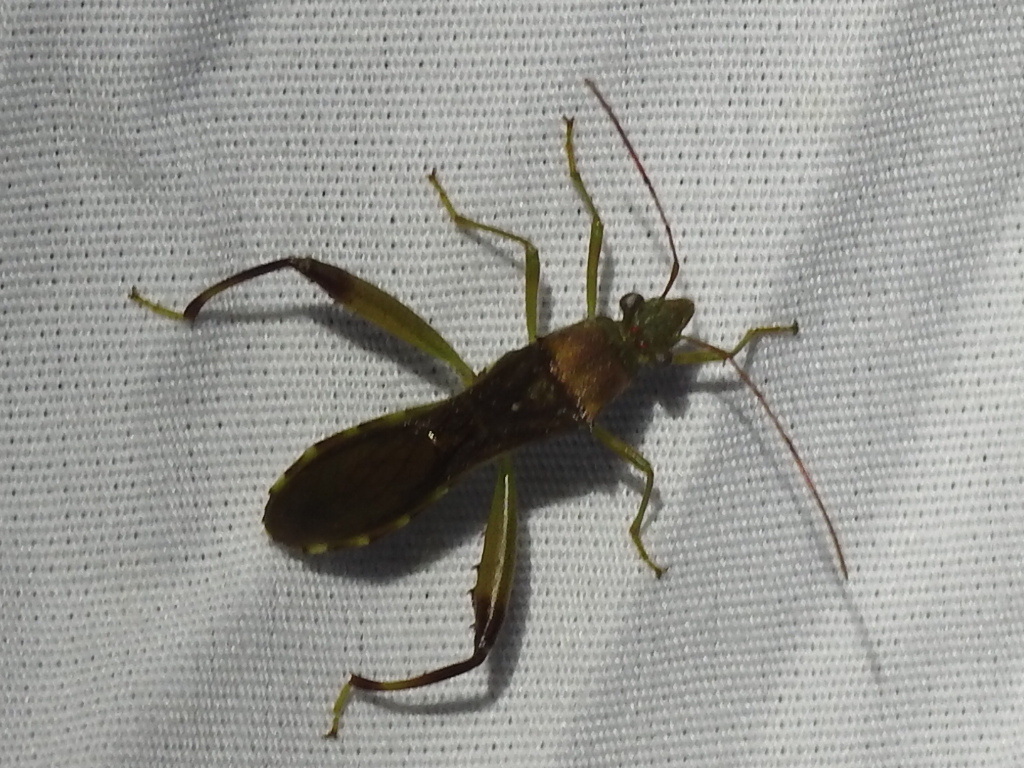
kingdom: Animalia
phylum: Arthropoda
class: Insecta
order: Hemiptera
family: Alydidae
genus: Hyalymenus
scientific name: Hyalymenus tarsatus
